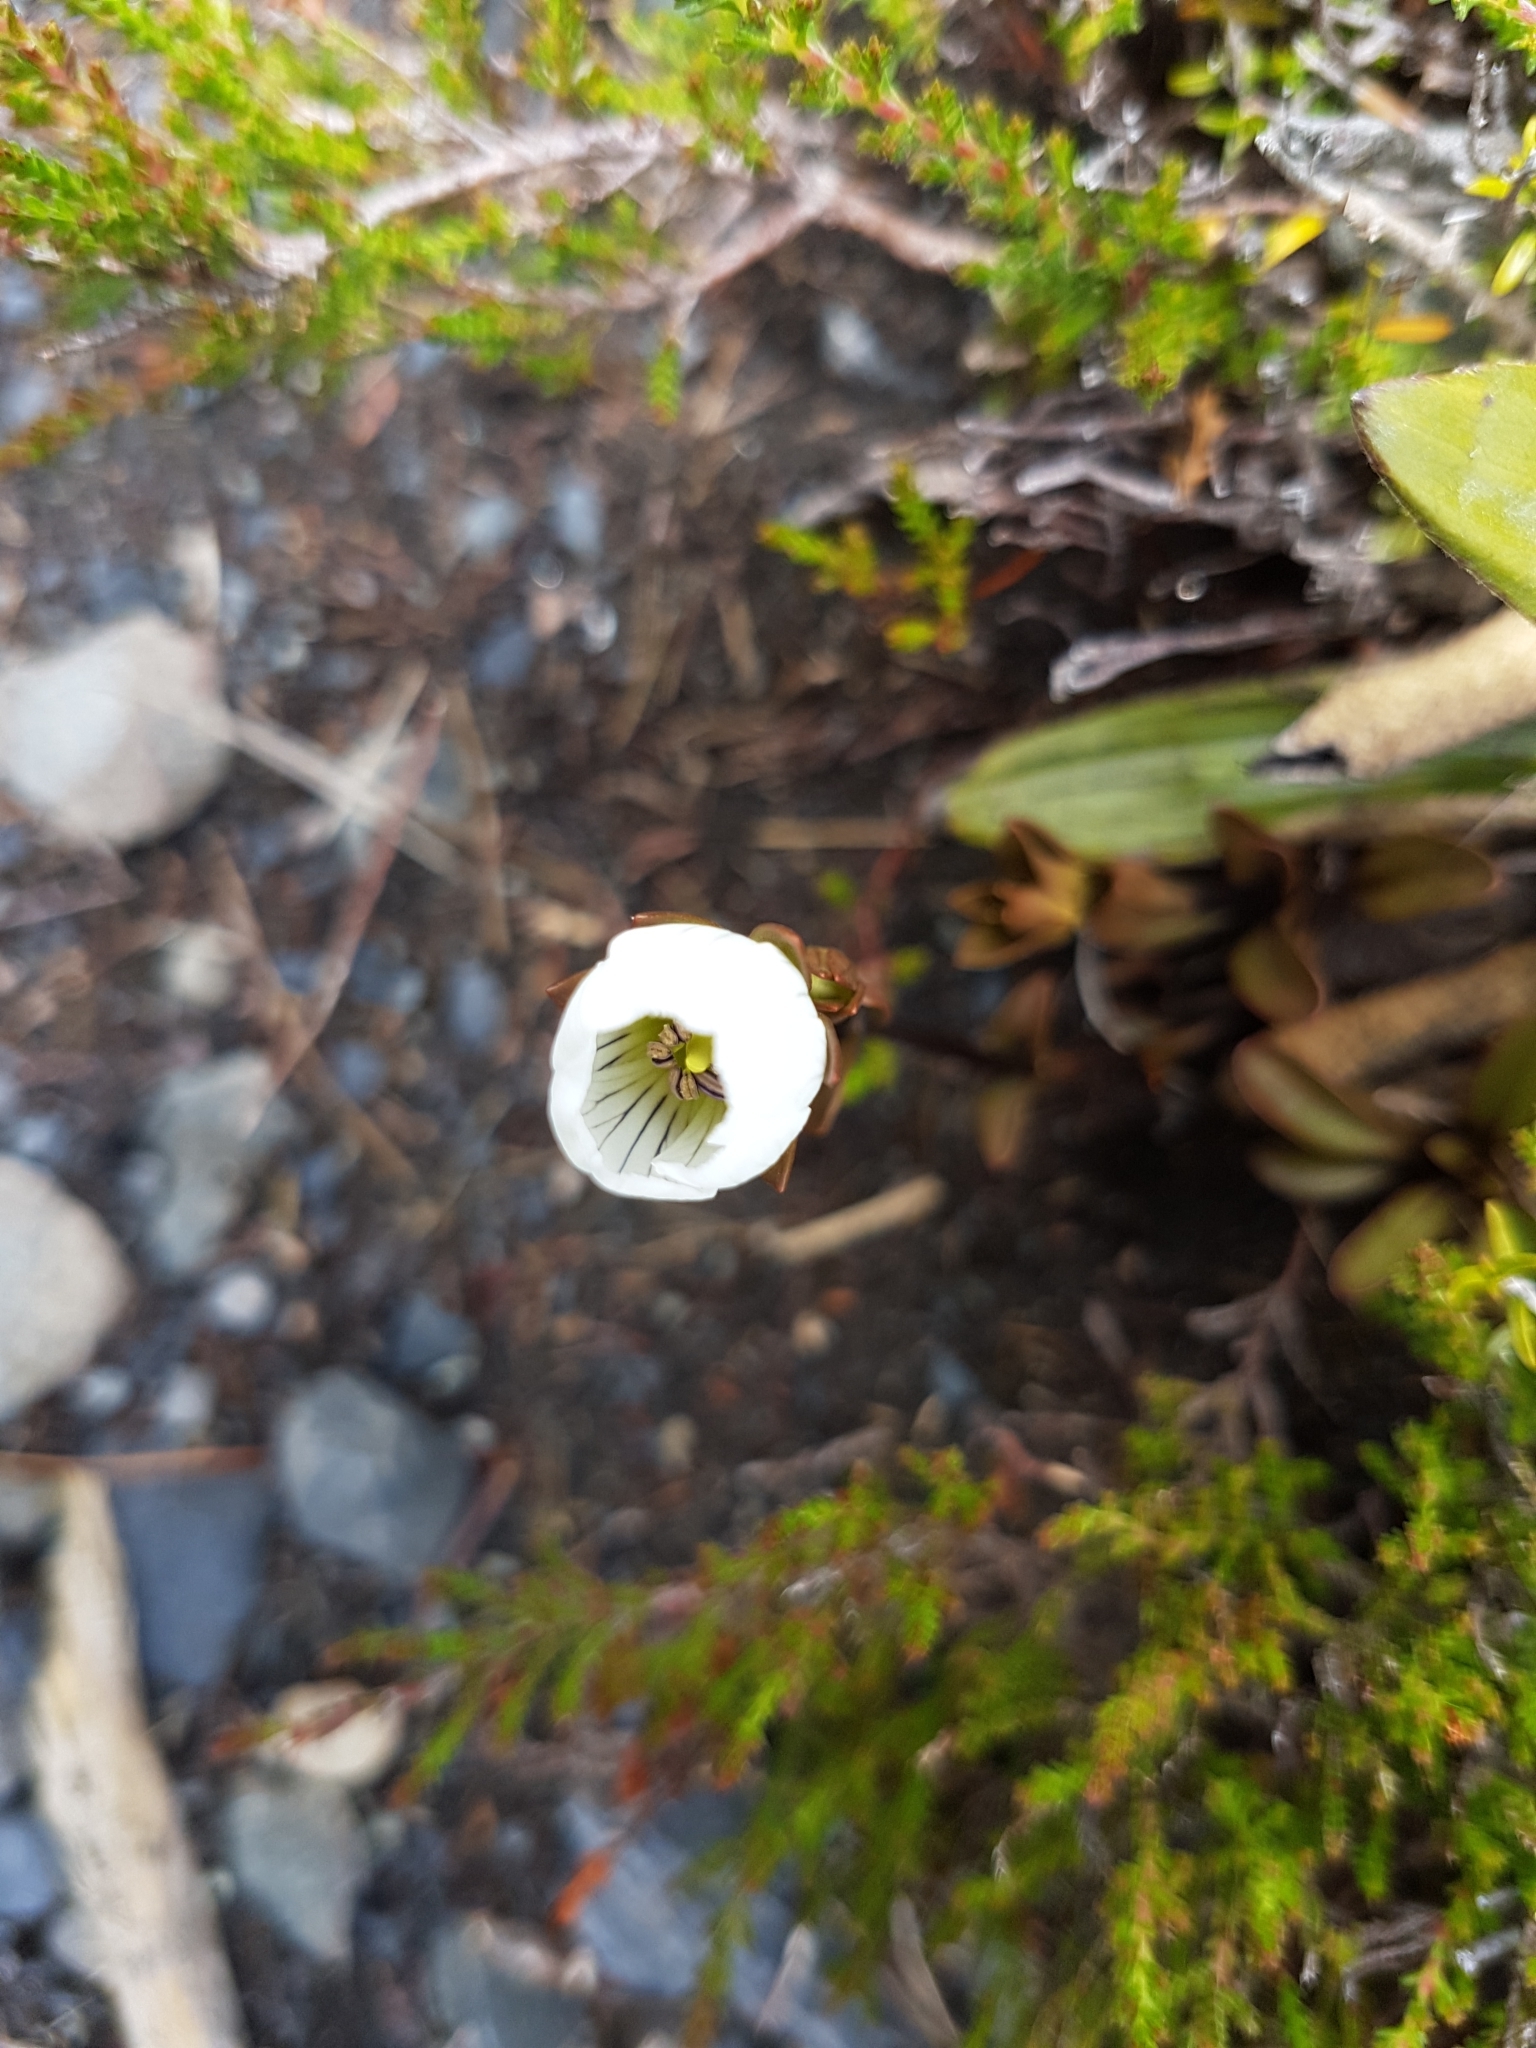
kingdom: Plantae
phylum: Tracheophyta
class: Magnoliopsida
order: Gentianales
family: Gentianaceae
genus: Gentianella
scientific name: Gentianella bellidifolia
